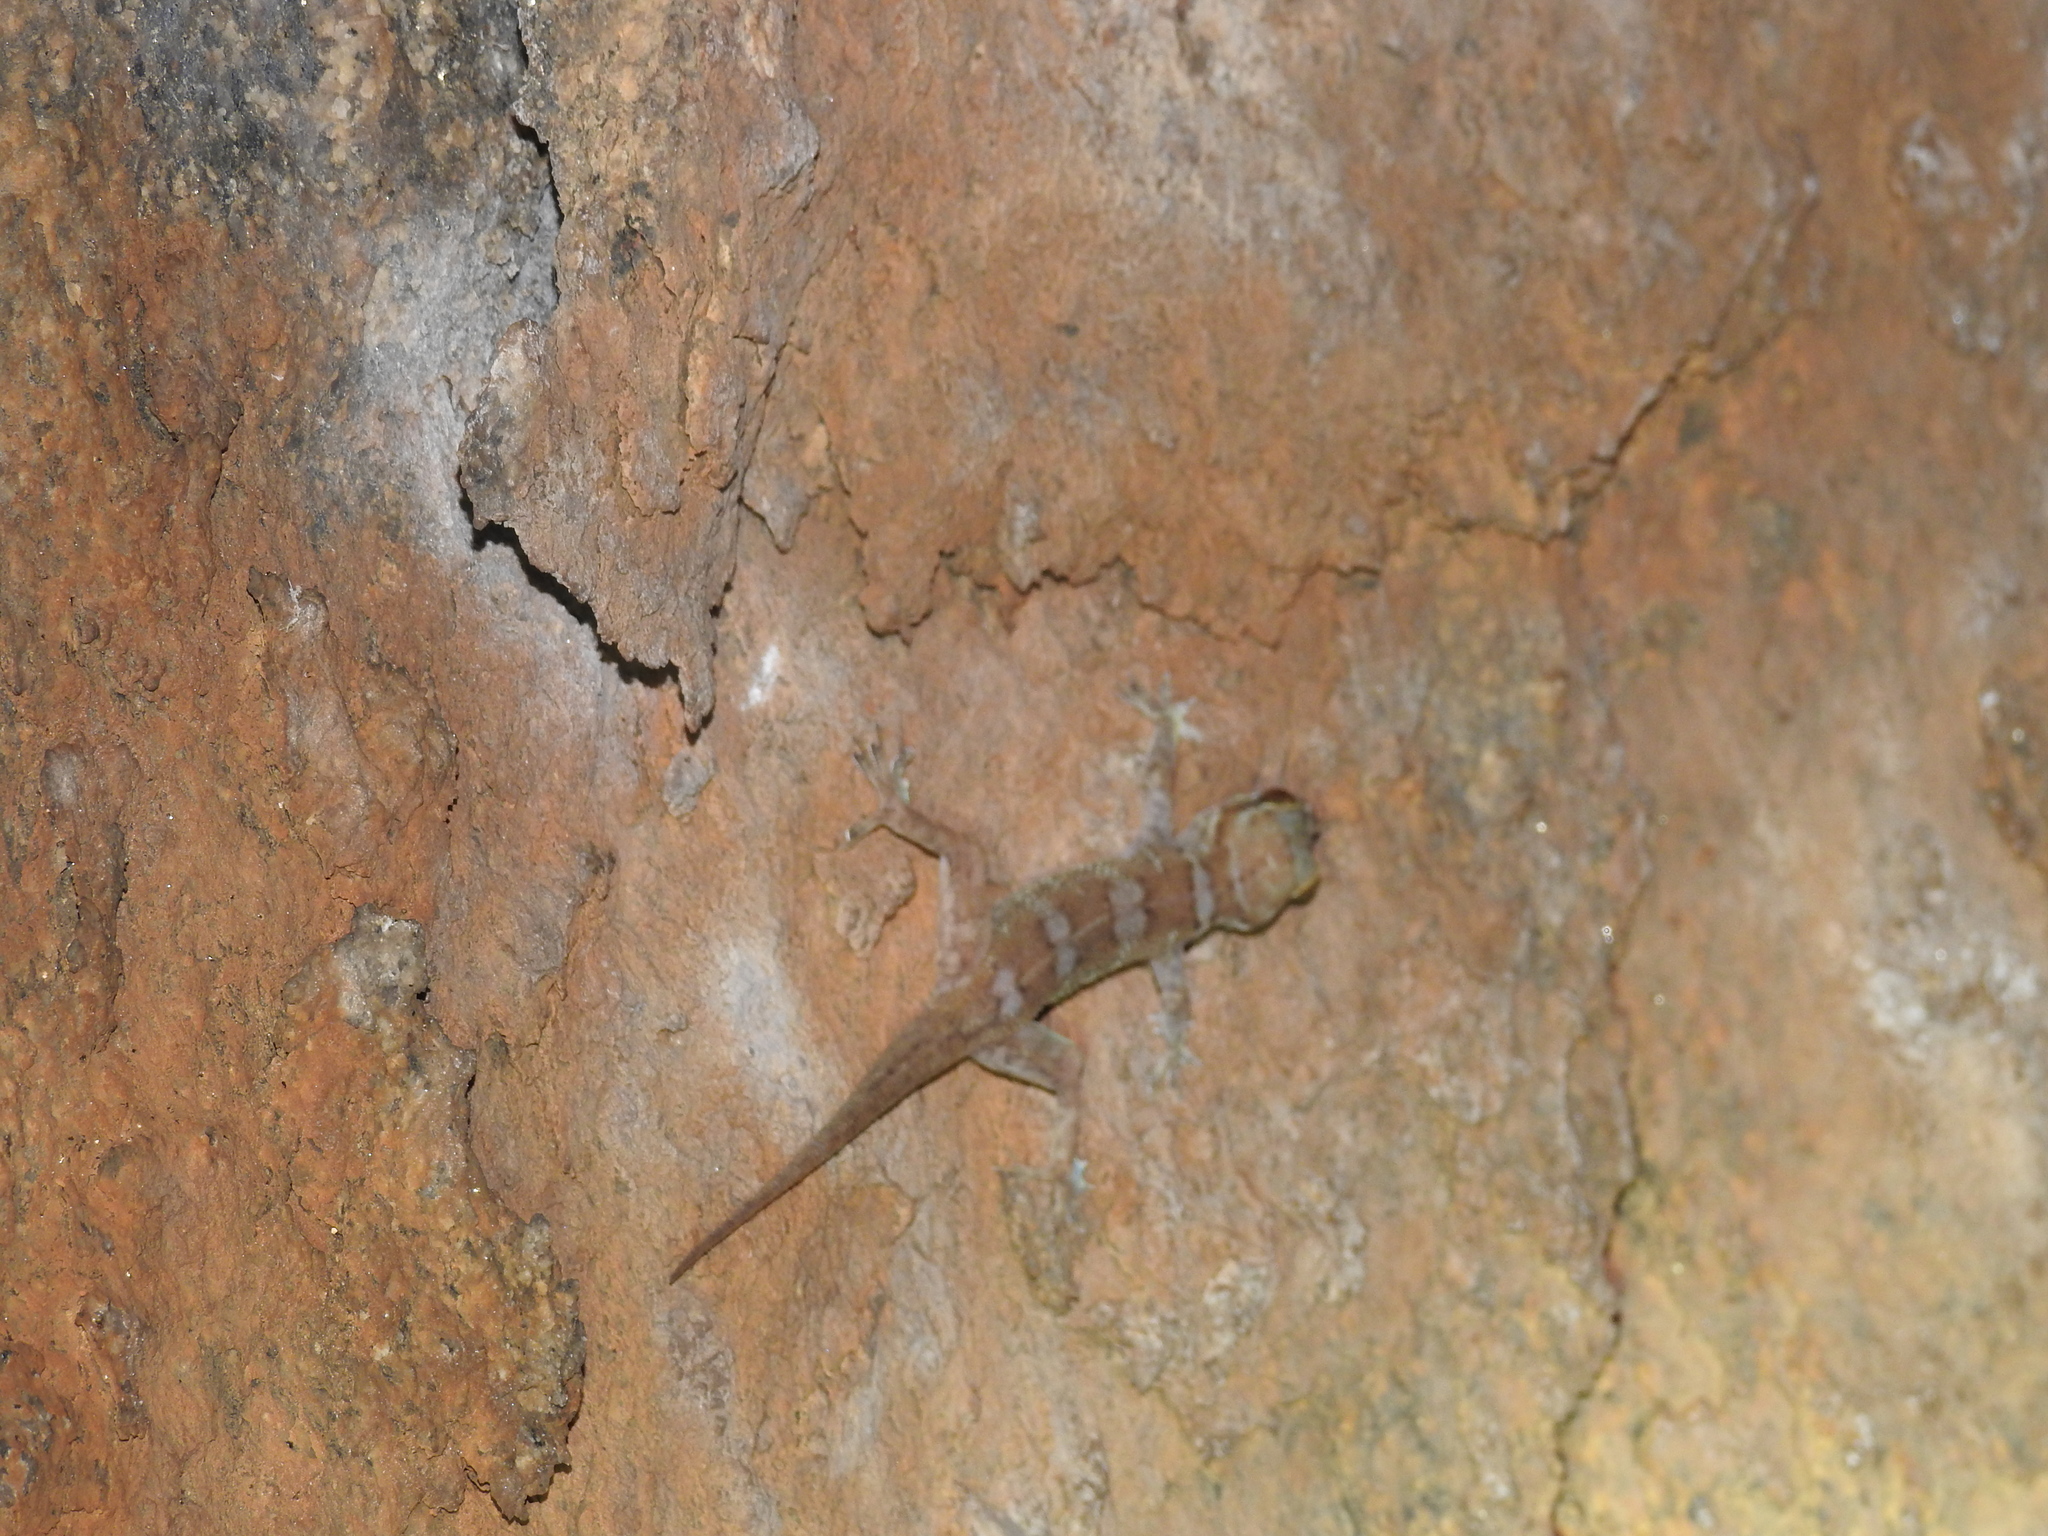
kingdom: Animalia
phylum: Chordata
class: Squamata
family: Gekkonidae
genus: Hemidactylus
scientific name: Hemidactylus triedrus
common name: Blotched house gecko
